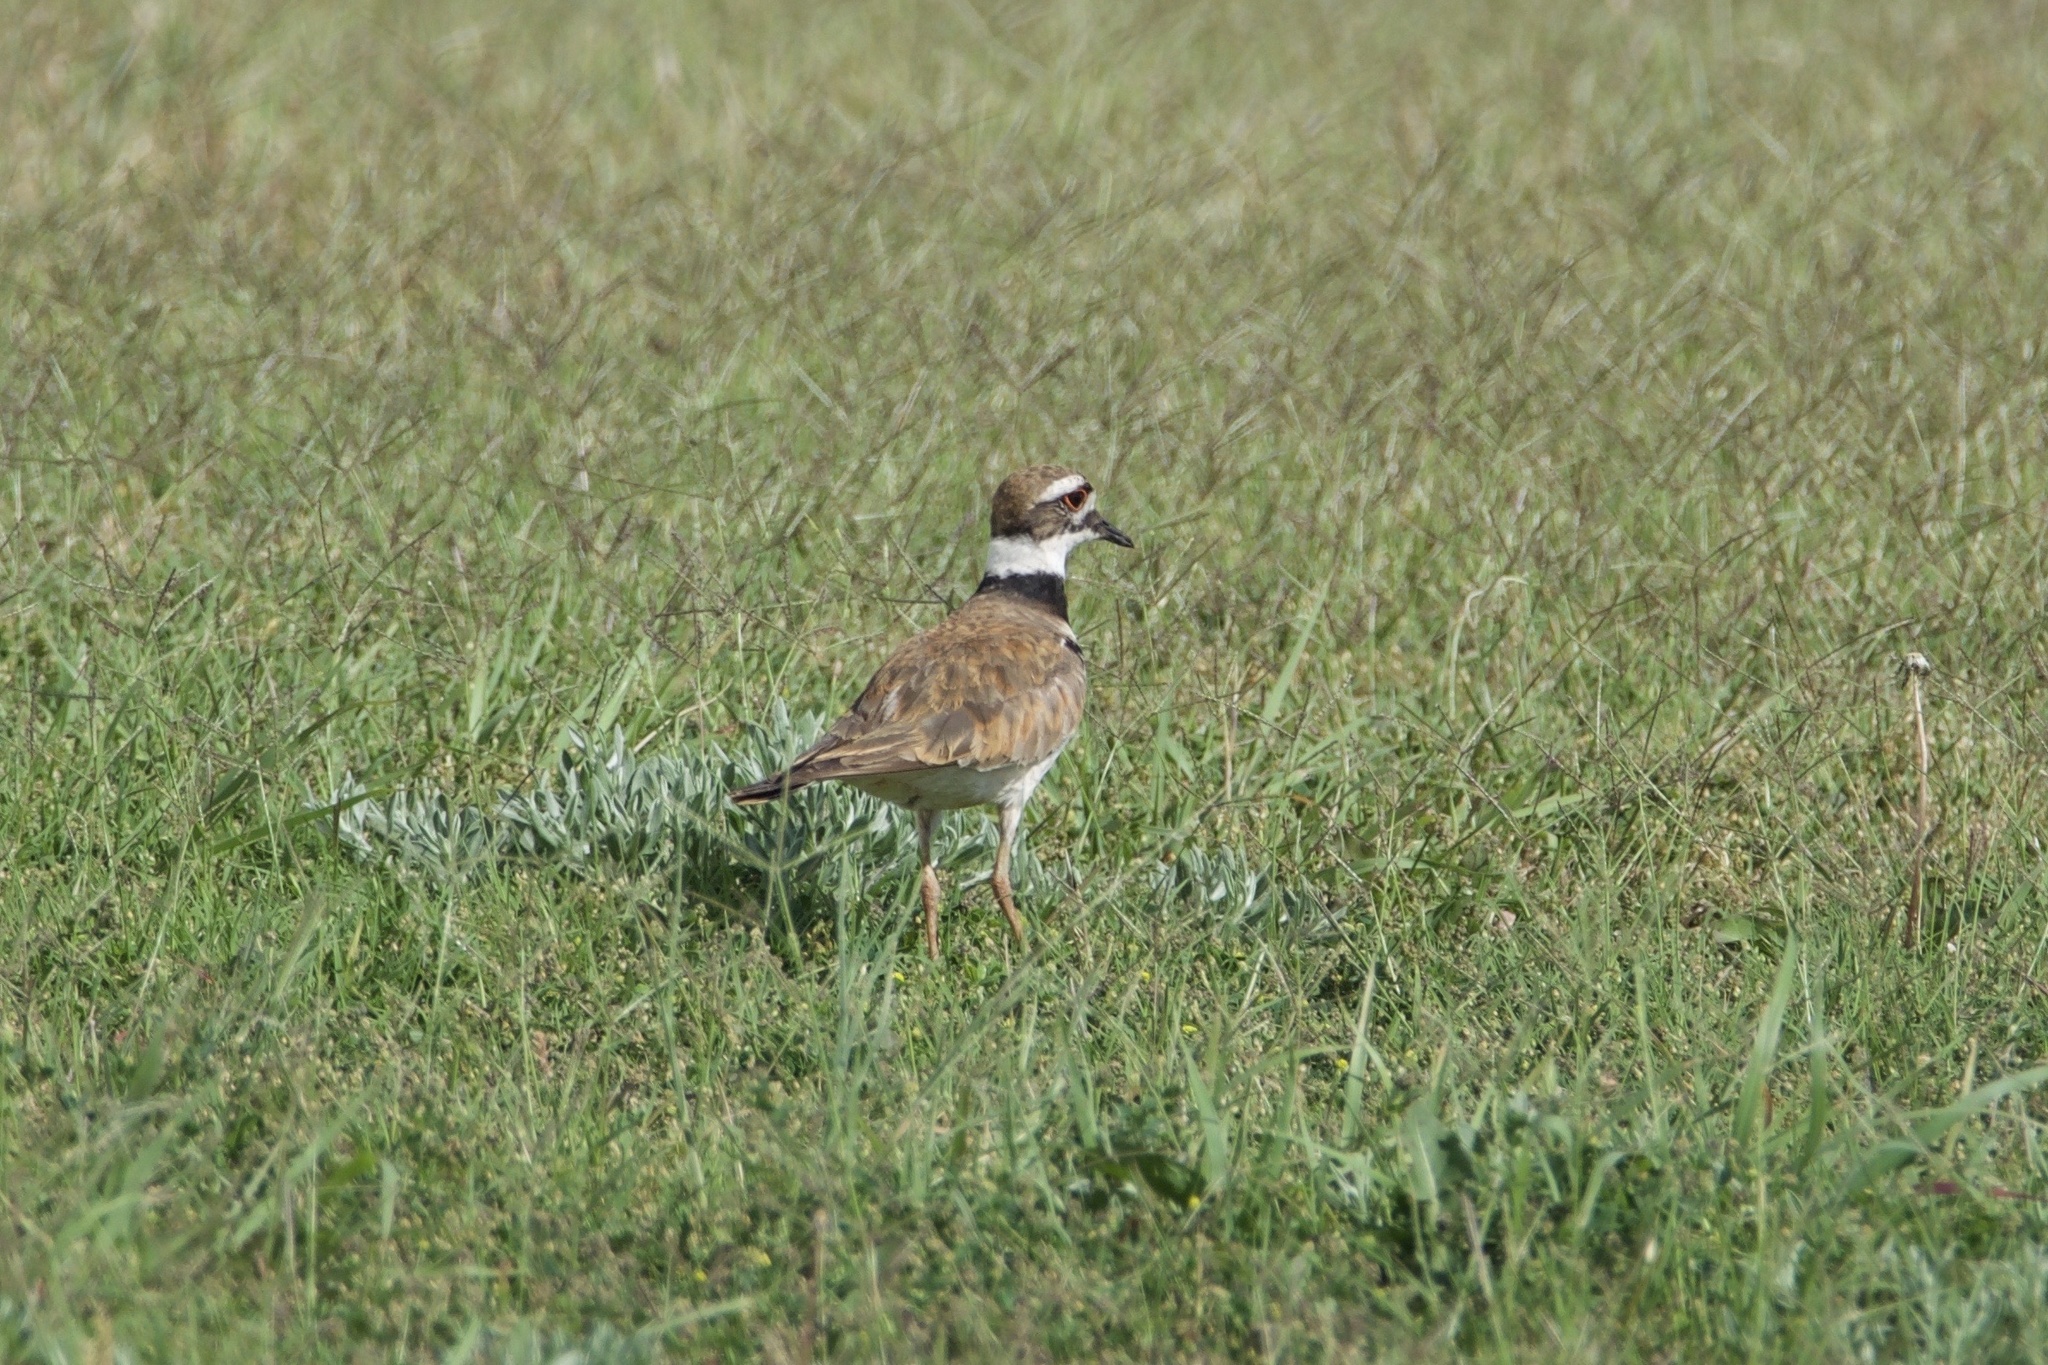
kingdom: Animalia
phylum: Chordata
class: Aves
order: Charadriiformes
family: Charadriidae
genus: Charadrius
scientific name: Charadrius vociferus
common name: Killdeer
